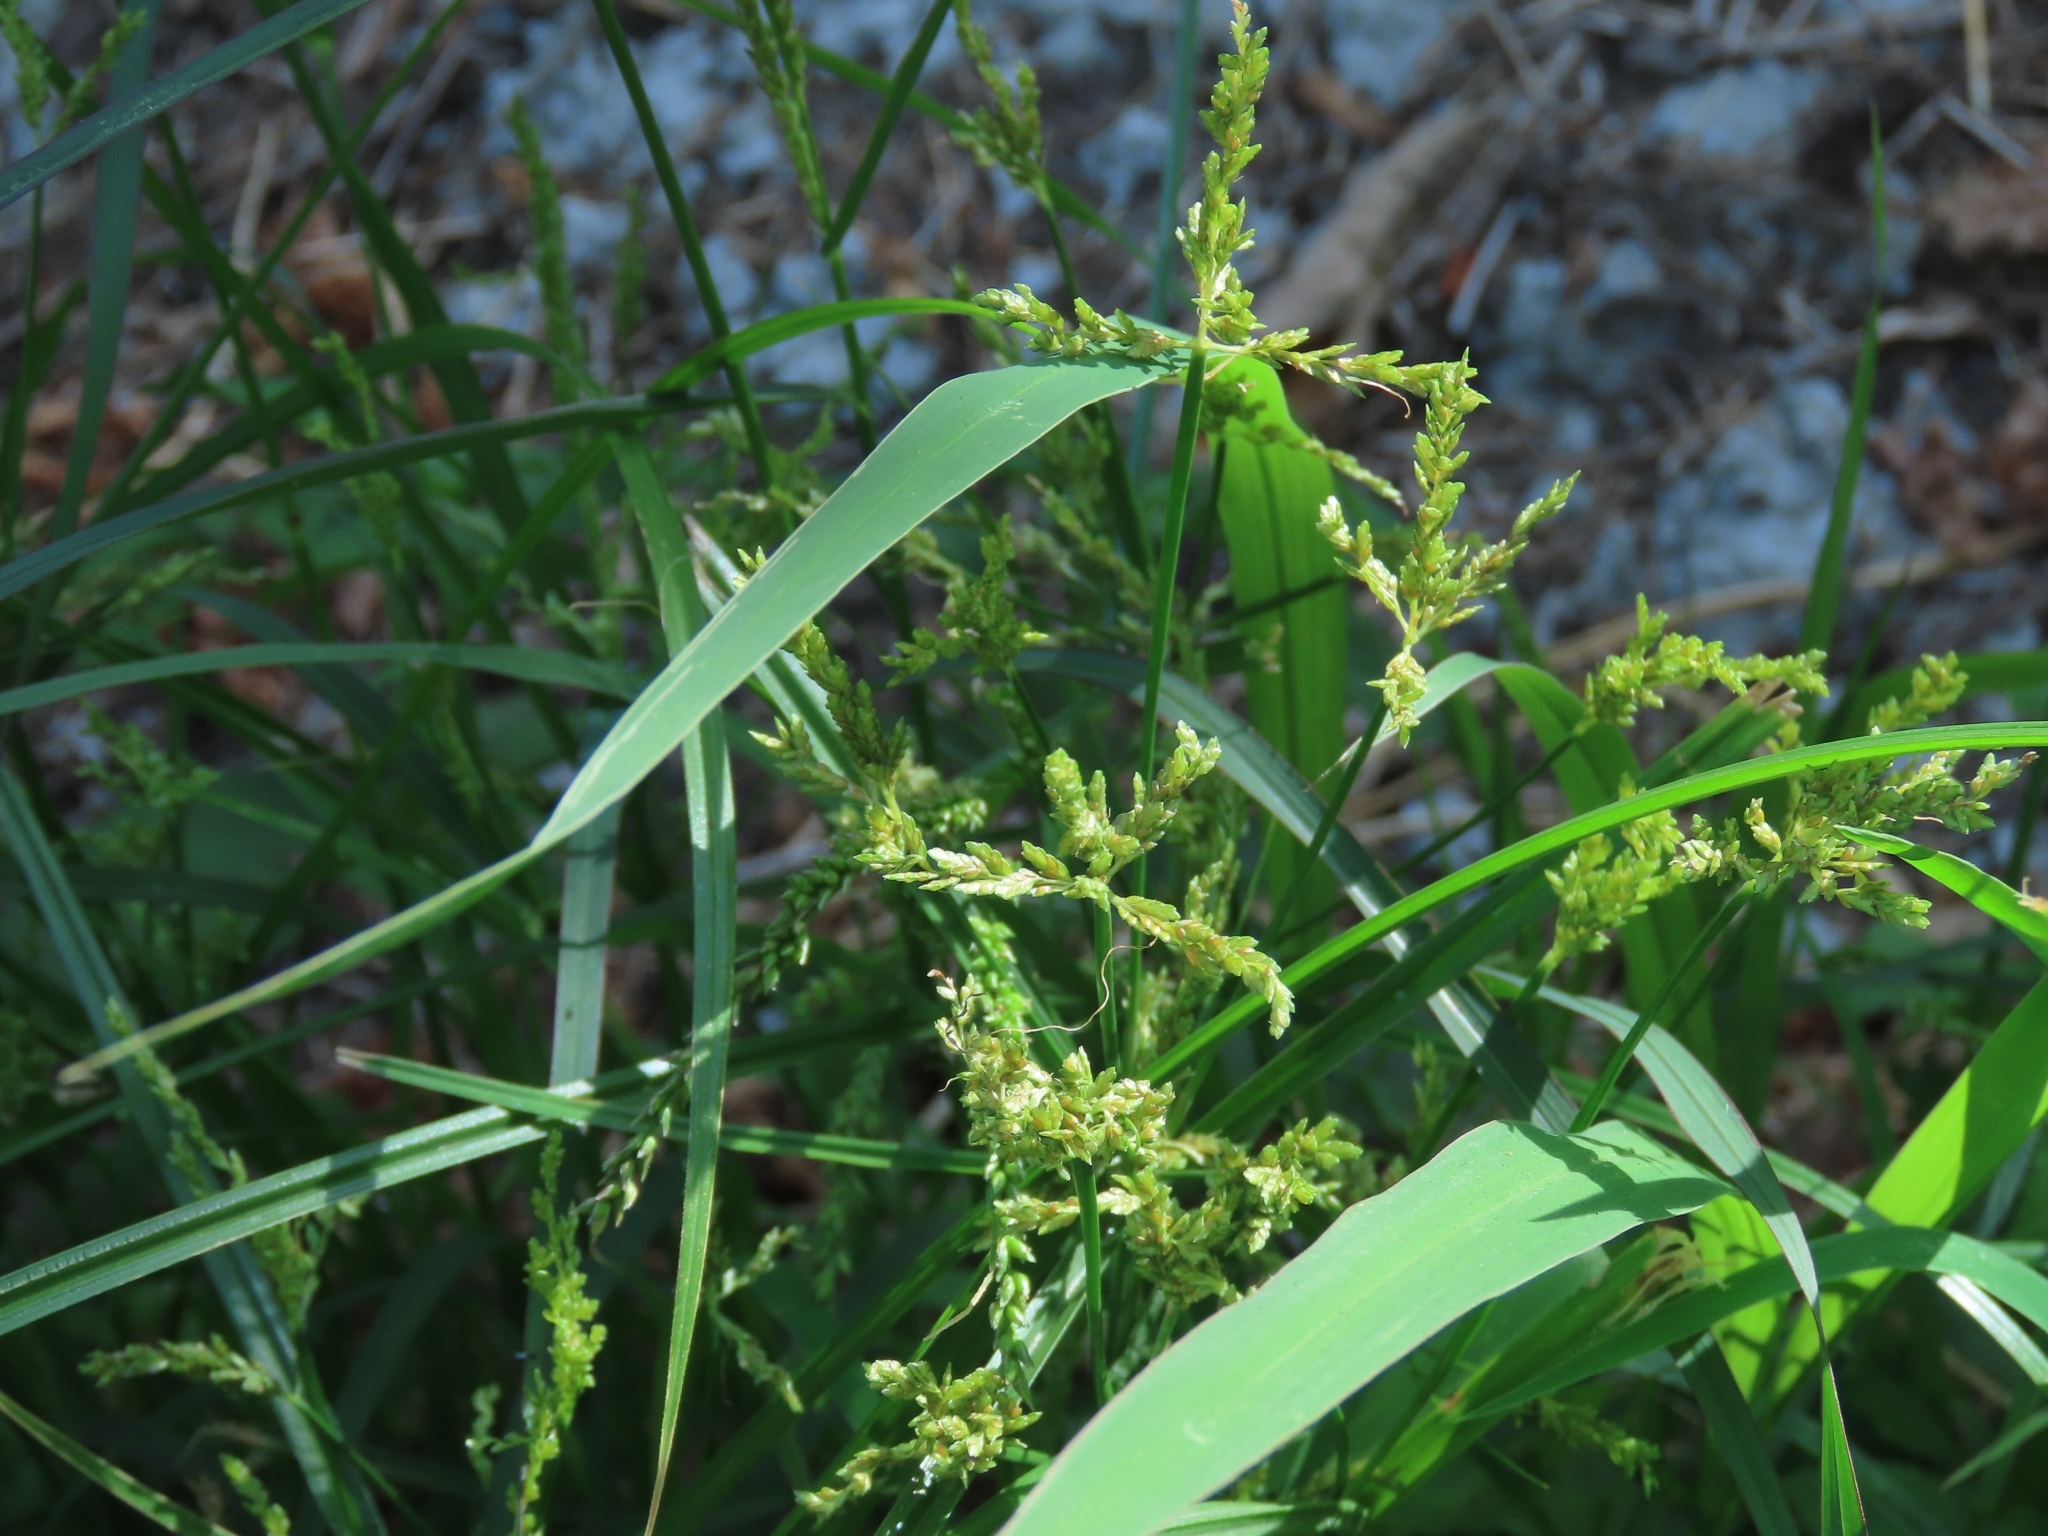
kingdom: Plantae
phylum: Tracheophyta
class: Liliopsida
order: Poales
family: Cyperaceae
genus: Cyperus
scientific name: Cyperus iria
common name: Ricefield flatsedge
